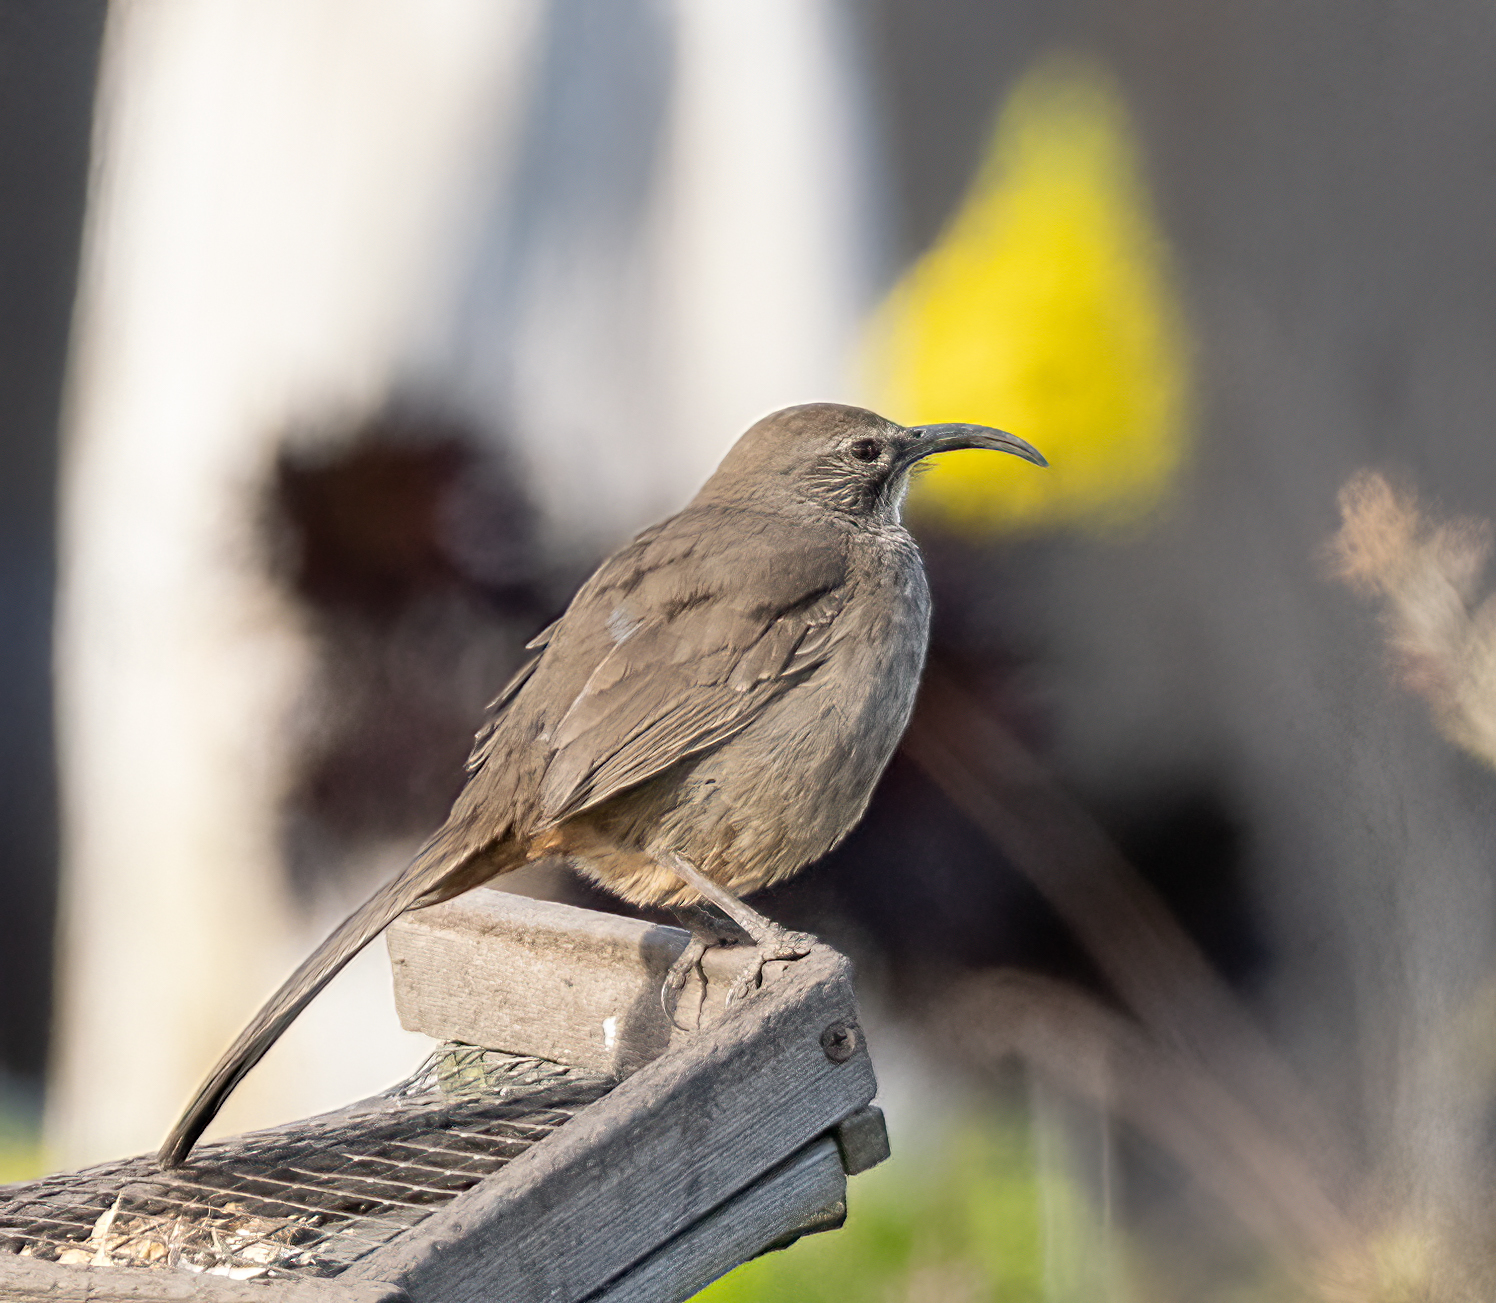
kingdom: Animalia
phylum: Chordata
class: Aves
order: Passeriformes
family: Mimidae
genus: Toxostoma
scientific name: Toxostoma redivivum
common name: California thrasher
